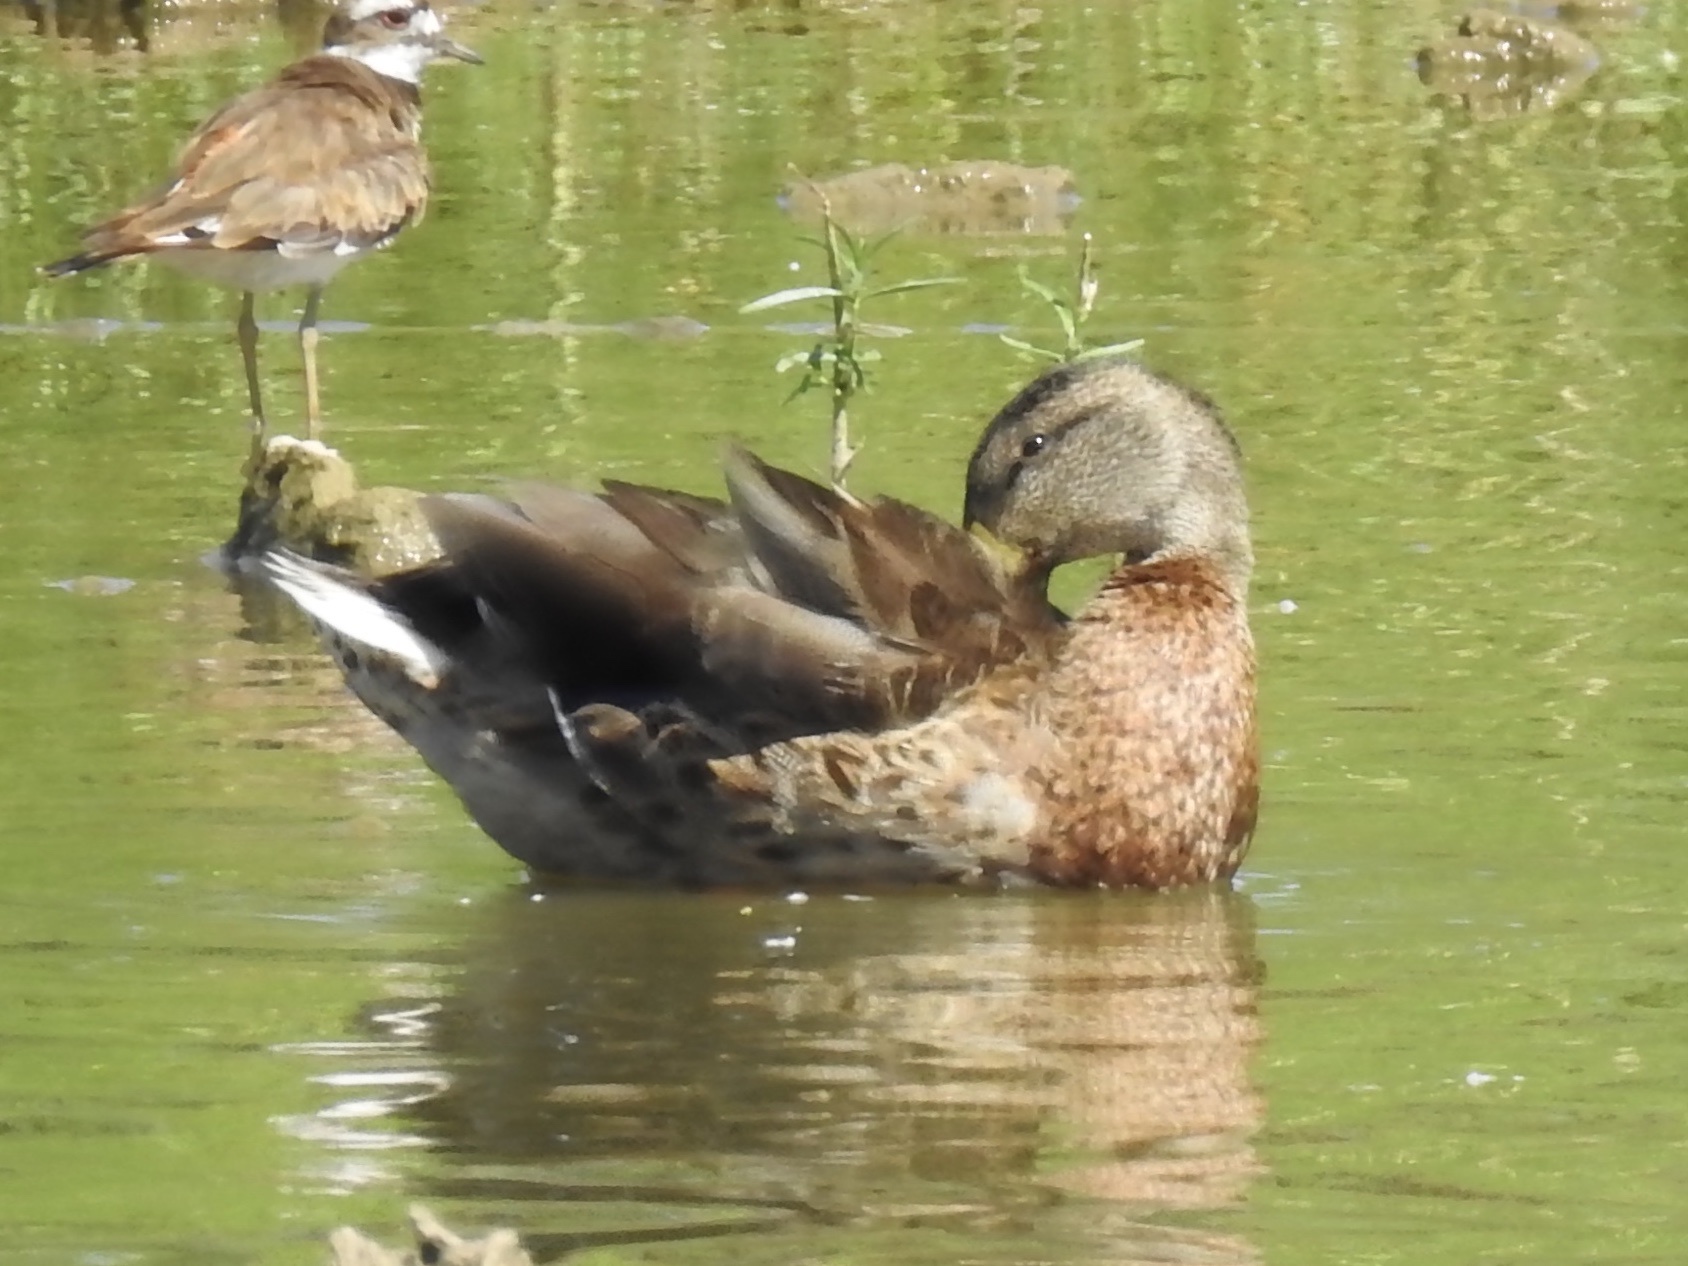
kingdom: Animalia
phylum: Chordata
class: Aves
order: Anseriformes
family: Anatidae
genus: Anas
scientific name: Anas platyrhynchos
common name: Mallard
